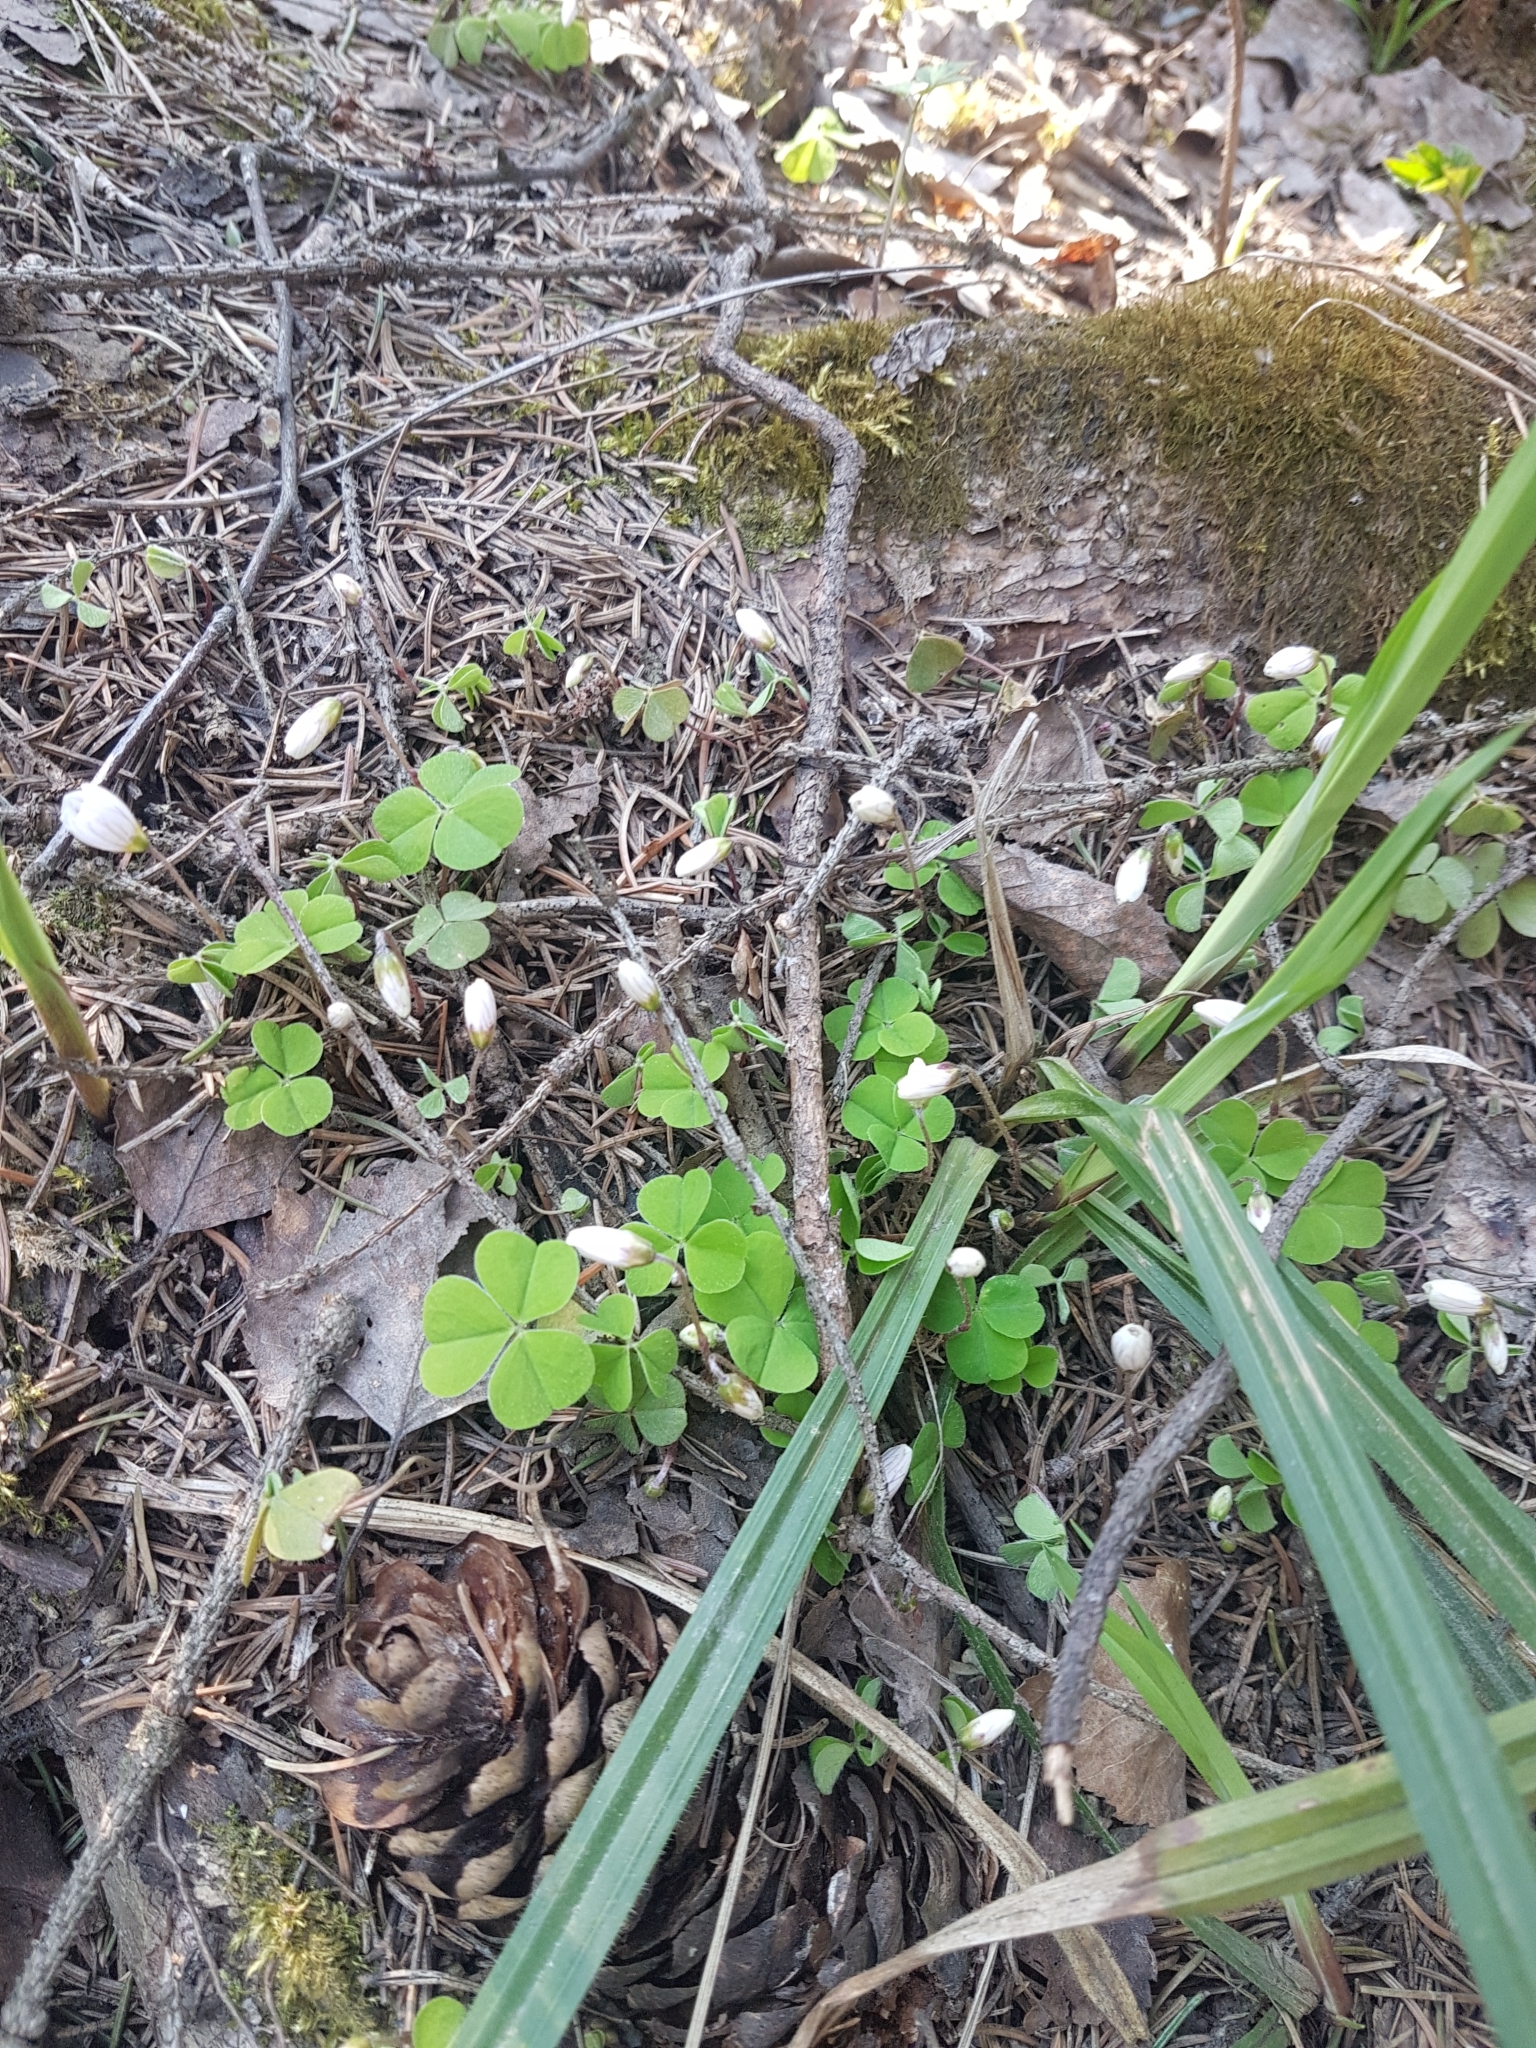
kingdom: Plantae
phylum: Tracheophyta
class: Magnoliopsida
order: Oxalidales
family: Oxalidaceae
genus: Oxalis
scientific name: Oxalis acetosella
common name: Wood-sorrel
